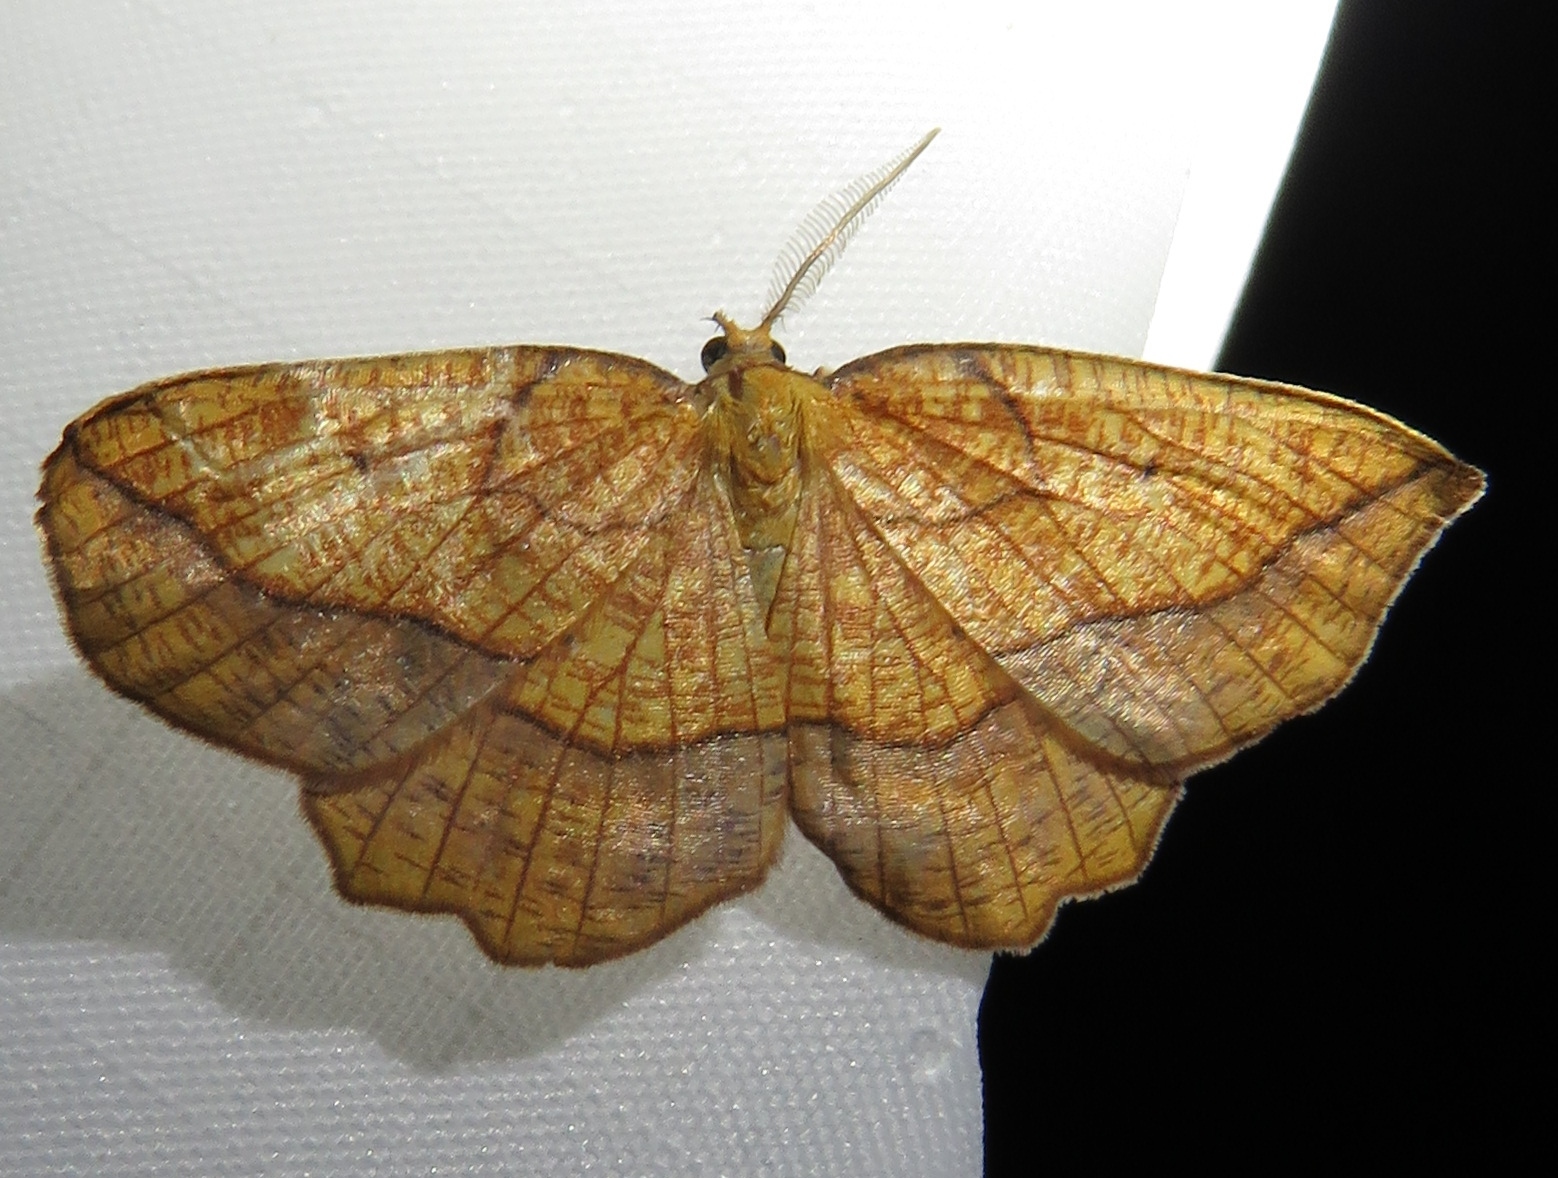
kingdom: Animalia
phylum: Arthropoda
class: Insecta
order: Lepidoptera
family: Geometridae
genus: Epione
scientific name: Epione repandaria
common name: Bordered beauty
